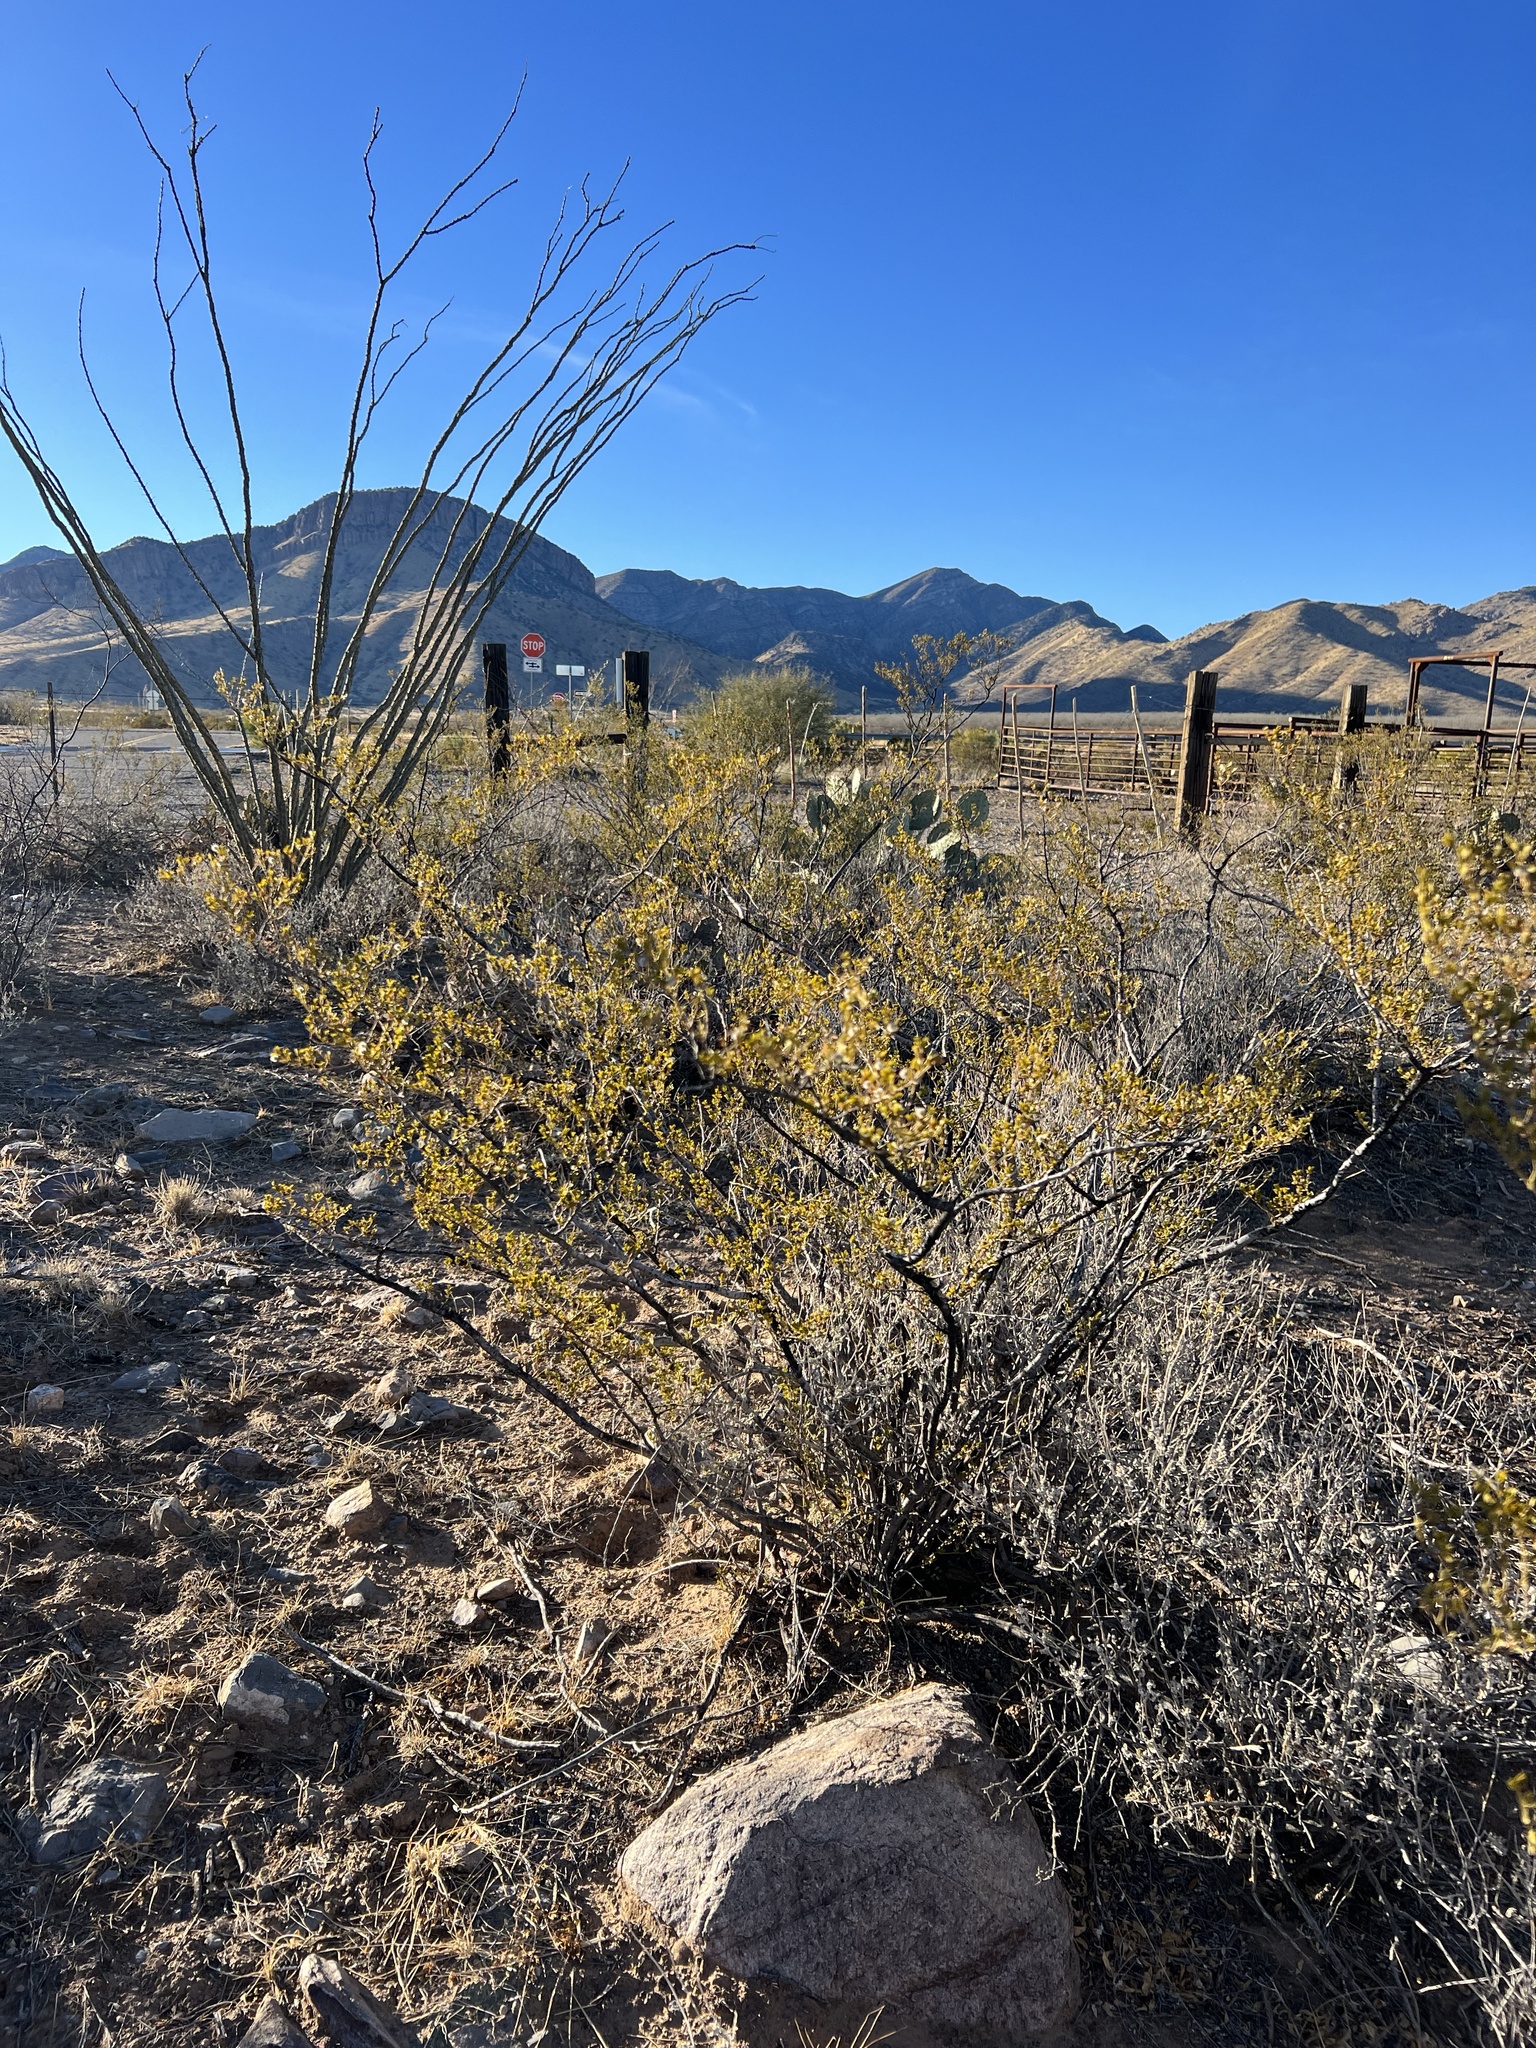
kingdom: Plantae
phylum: Tracheophyta
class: Magnoliopsida
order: Zygophyllales
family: Zygophyllaceae
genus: Larrea
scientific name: Larrea tridentata
